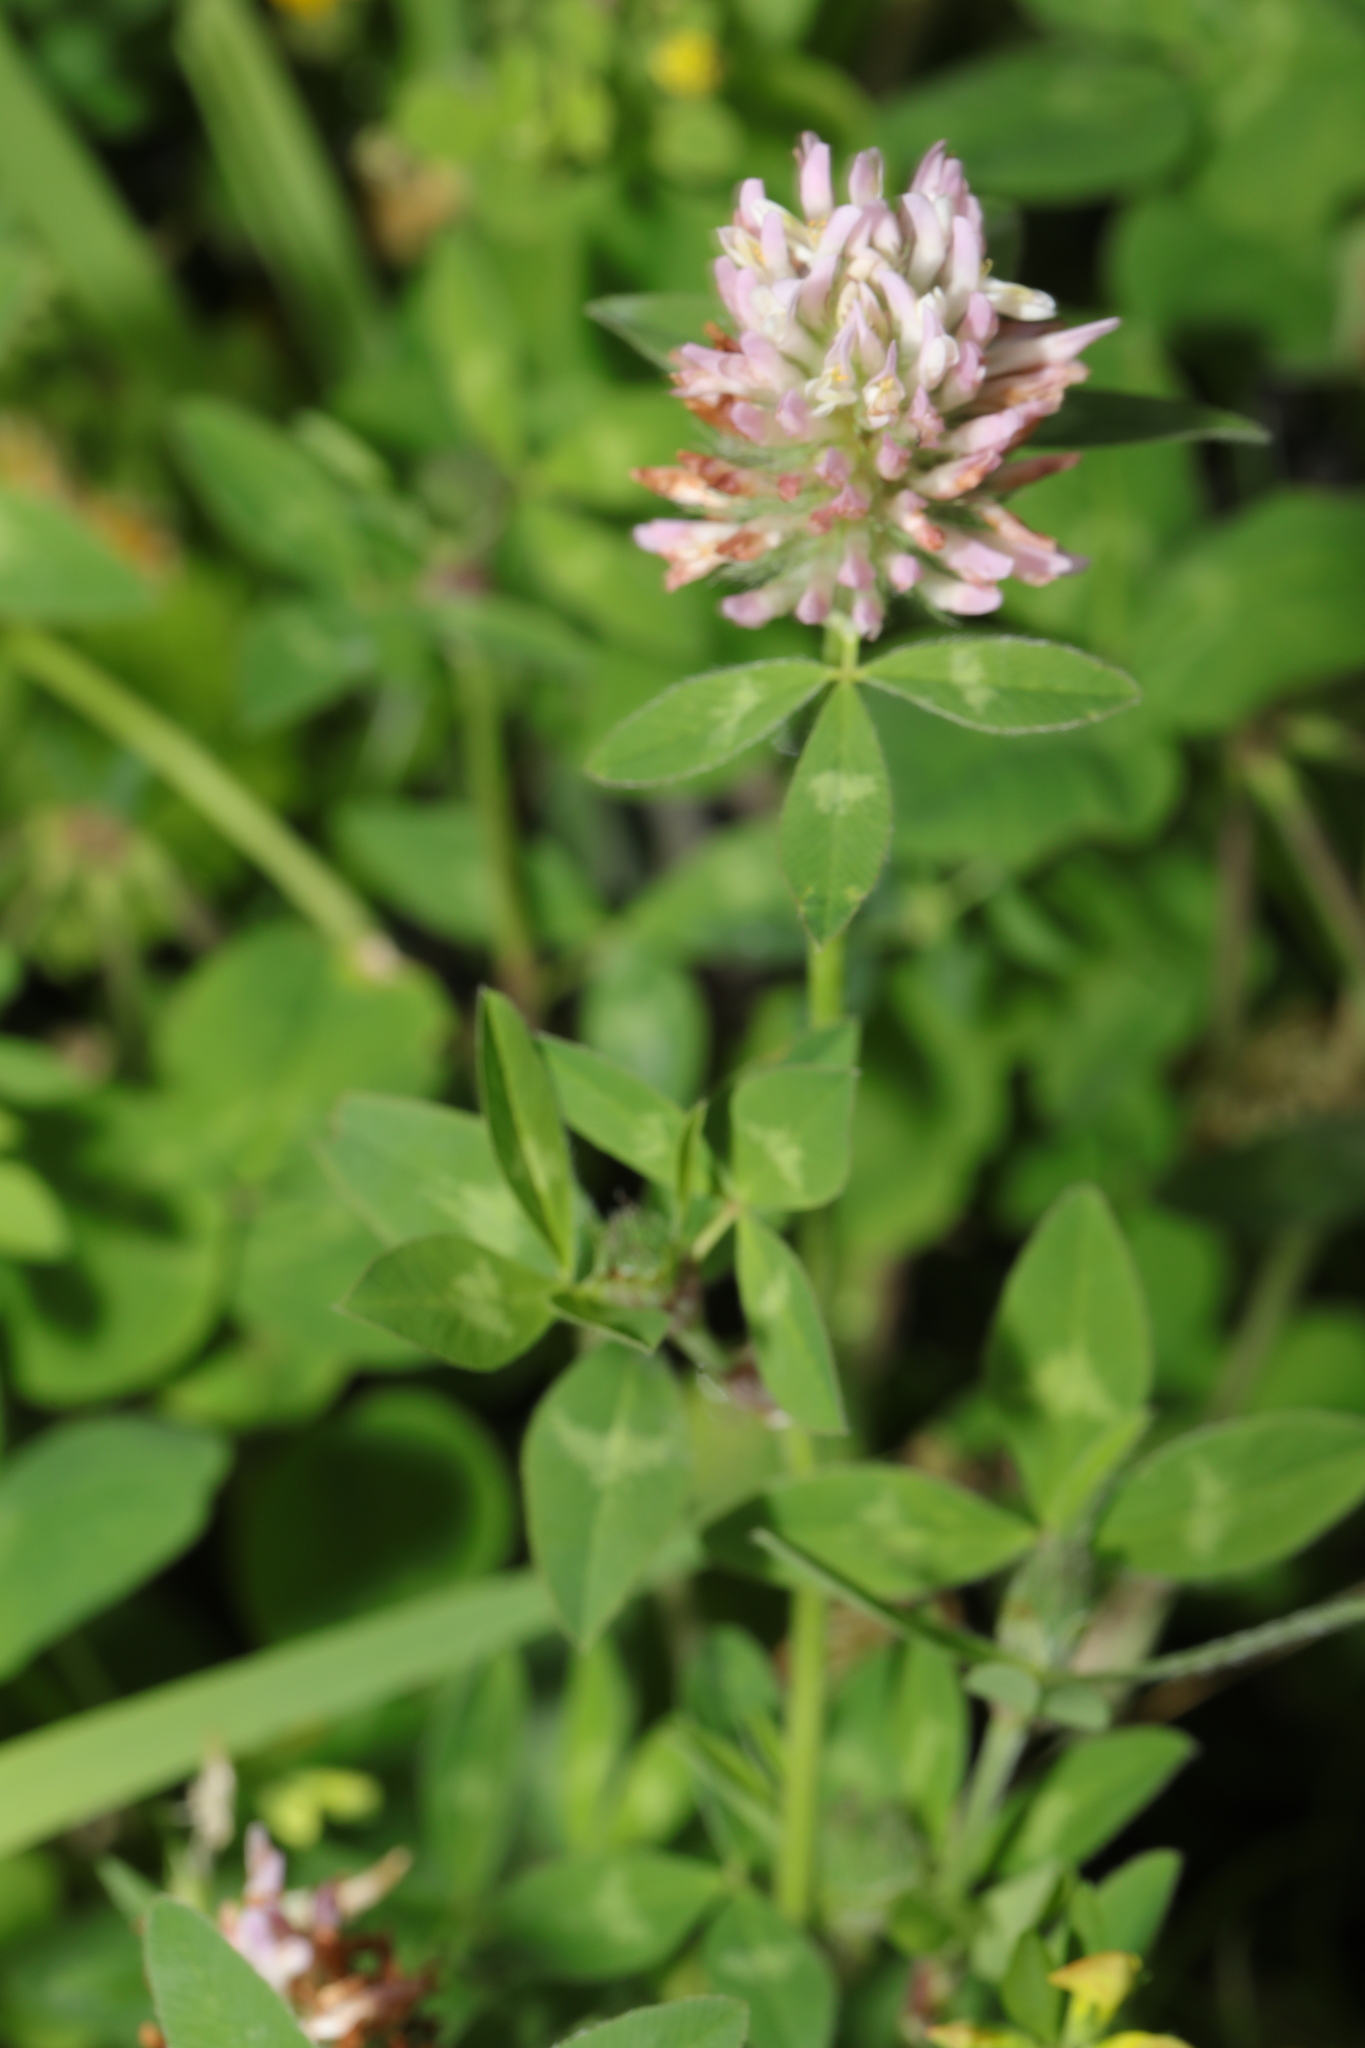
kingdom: Plantae
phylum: Tracheophyta
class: Magnoliopsida
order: Fabales
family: Fabaceae
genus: Trifolium
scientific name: Trifolium pratense
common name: Red clover
